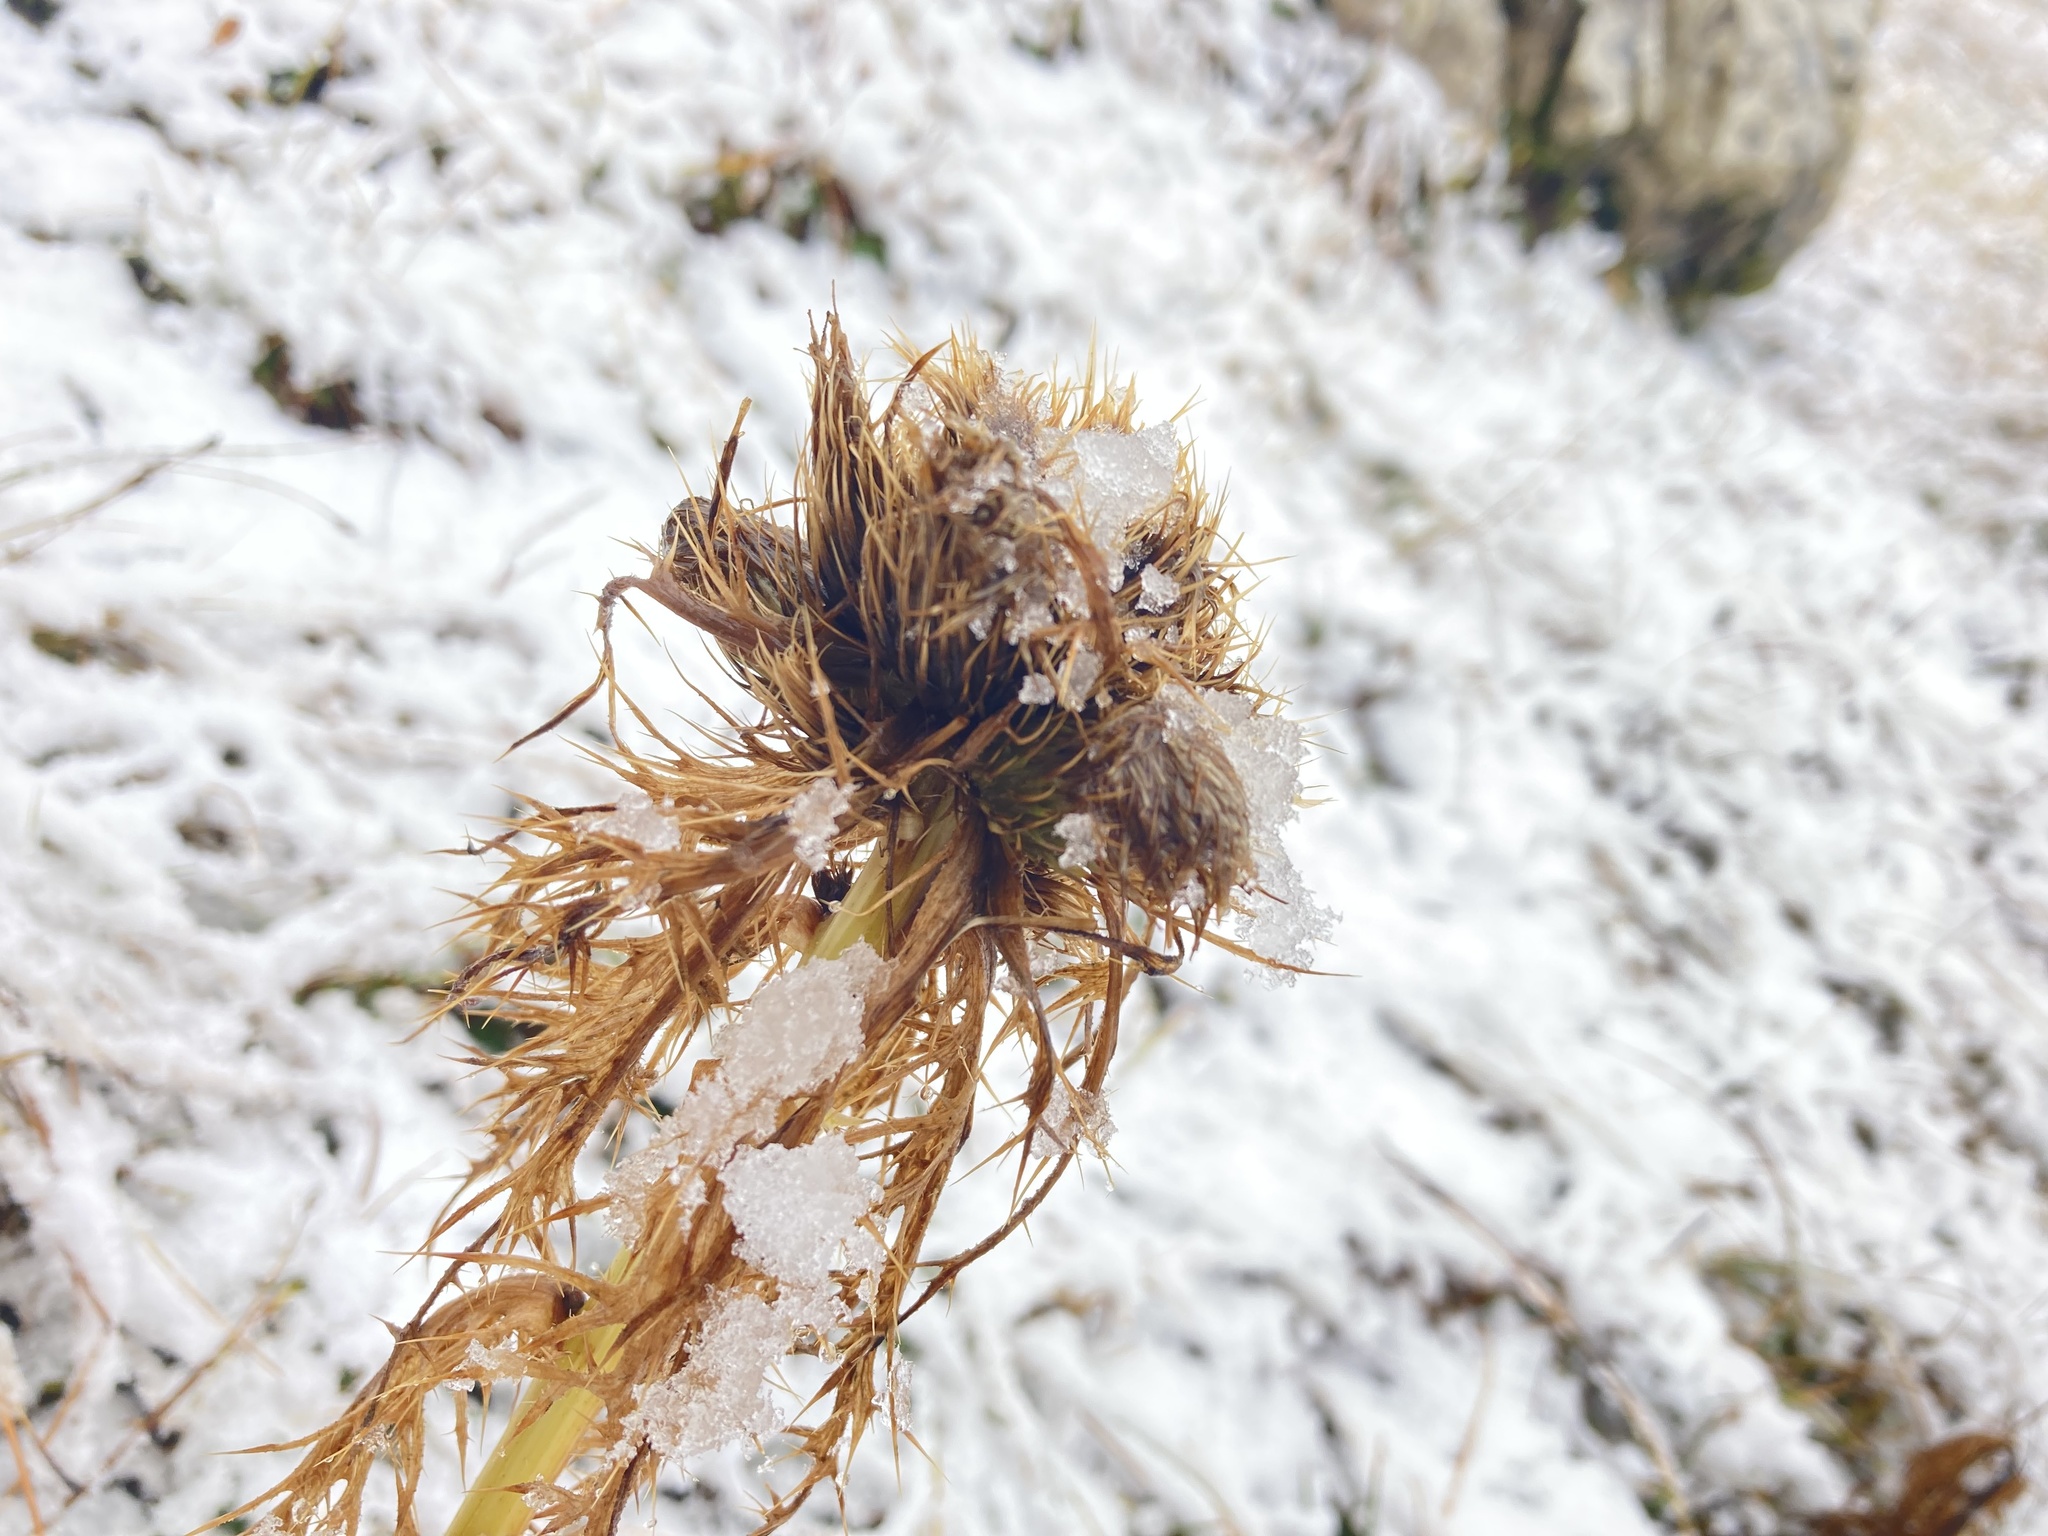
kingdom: Plantae
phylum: Tracheophyta
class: Magnoliopsida
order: Asterales
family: Asteraceae
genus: Cirsium
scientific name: Cirsium spinosissimum
